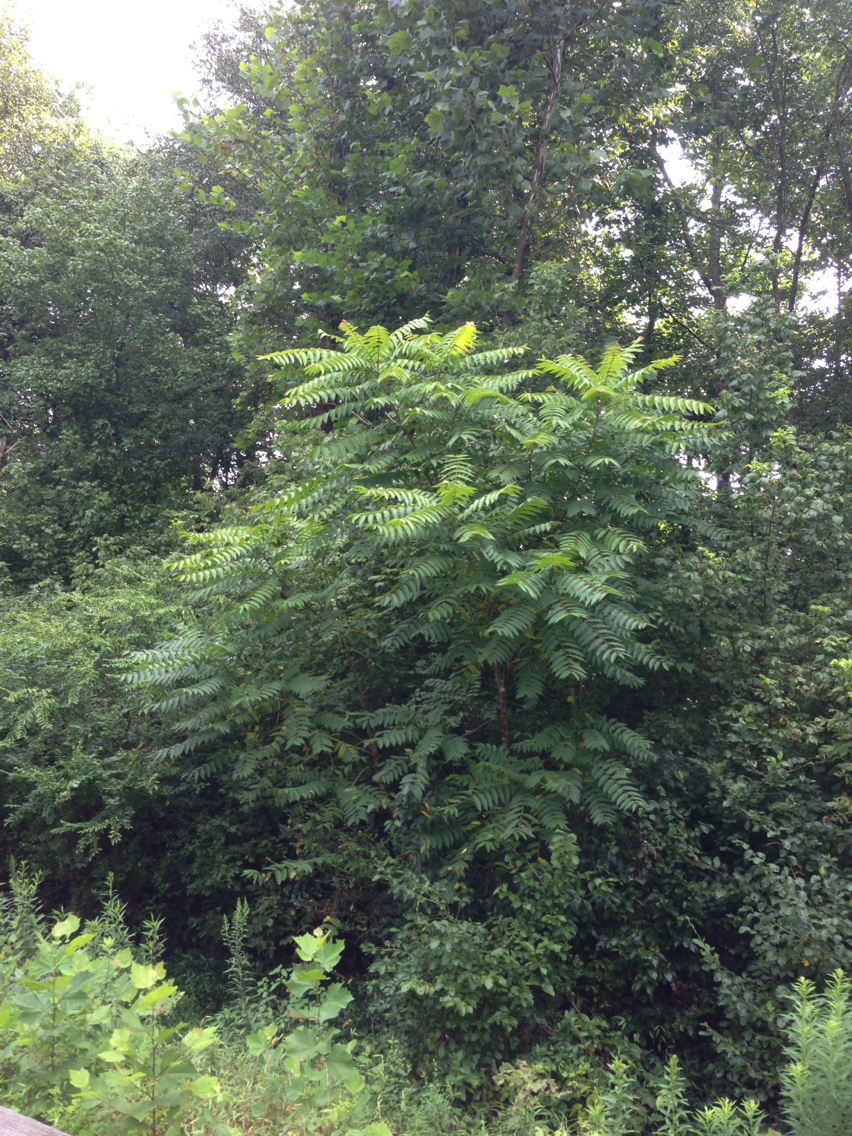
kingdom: Plantae
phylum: Tracheophyta
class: Magnoliopsida
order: Sapindales
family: Simaroubaceae
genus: Ailanthus
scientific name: Ailanthus altissima
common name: Tree-of-heaven
